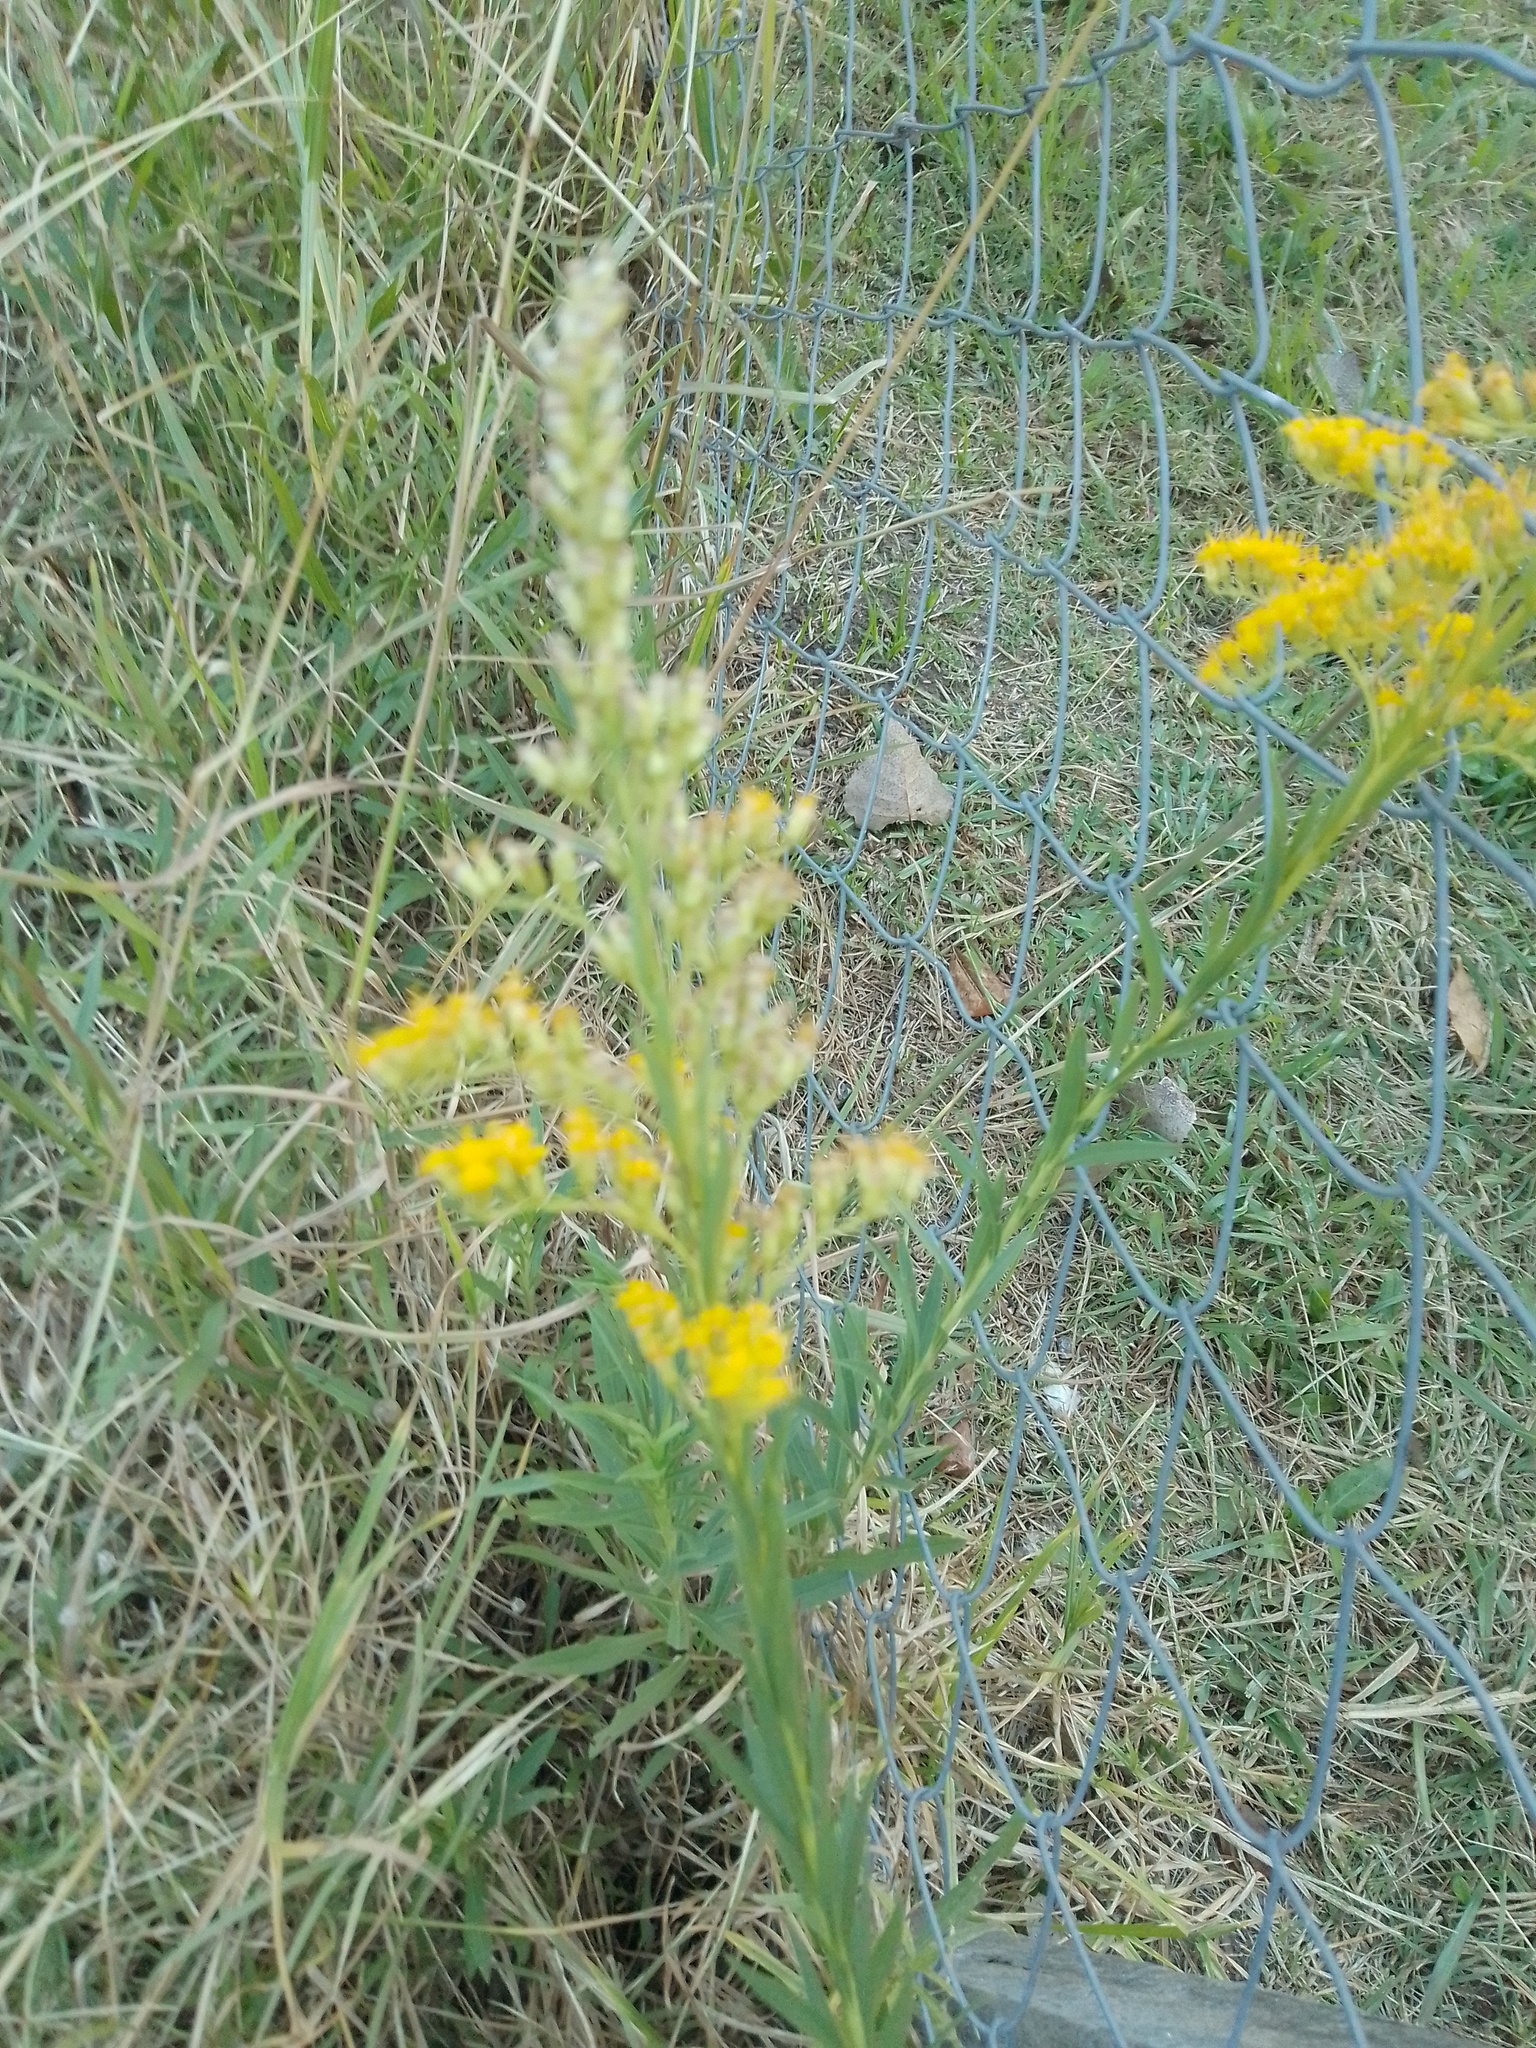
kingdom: Plantae
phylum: Tracheophyta
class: Magnoliopsida
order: Asterales
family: Asteraceae
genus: Solidago
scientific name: Solidago chilensis
